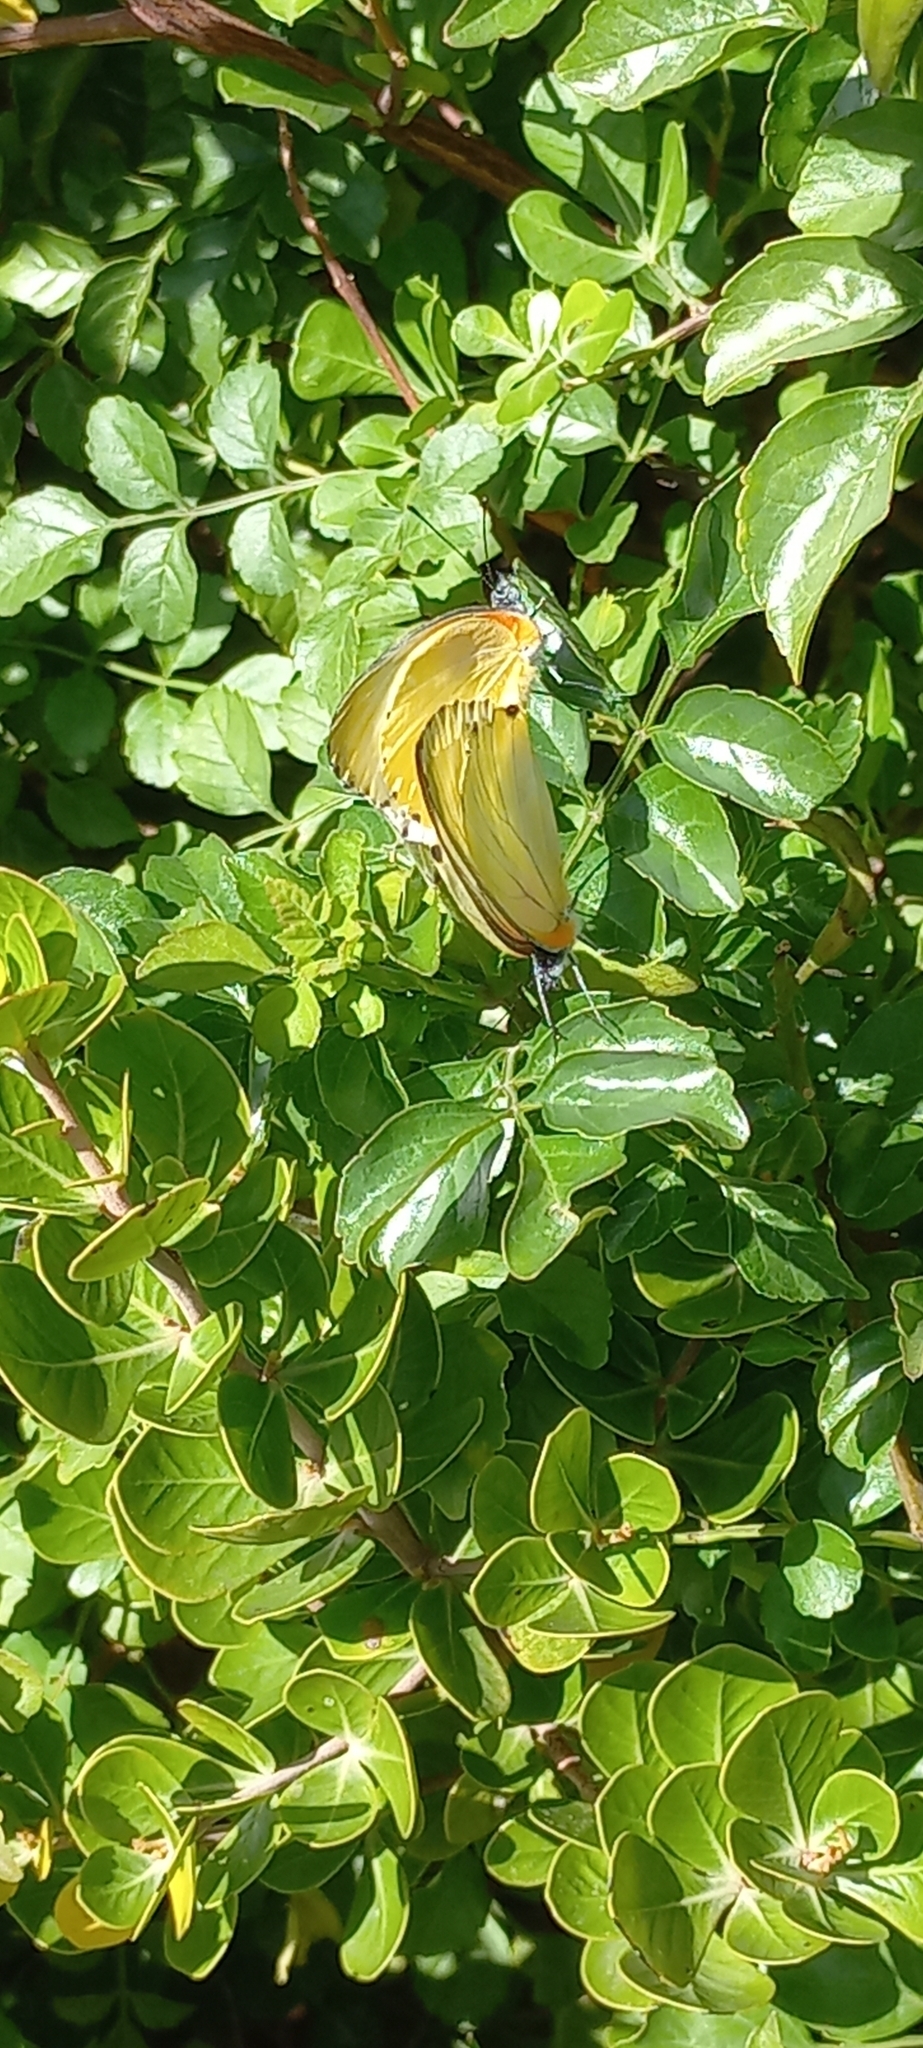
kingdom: Animalia
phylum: Arthropoda
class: Insecta
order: Lepidoptera
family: Pieridae
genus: Mylothris
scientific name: Mylothris agathina
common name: Eastern dotted border
